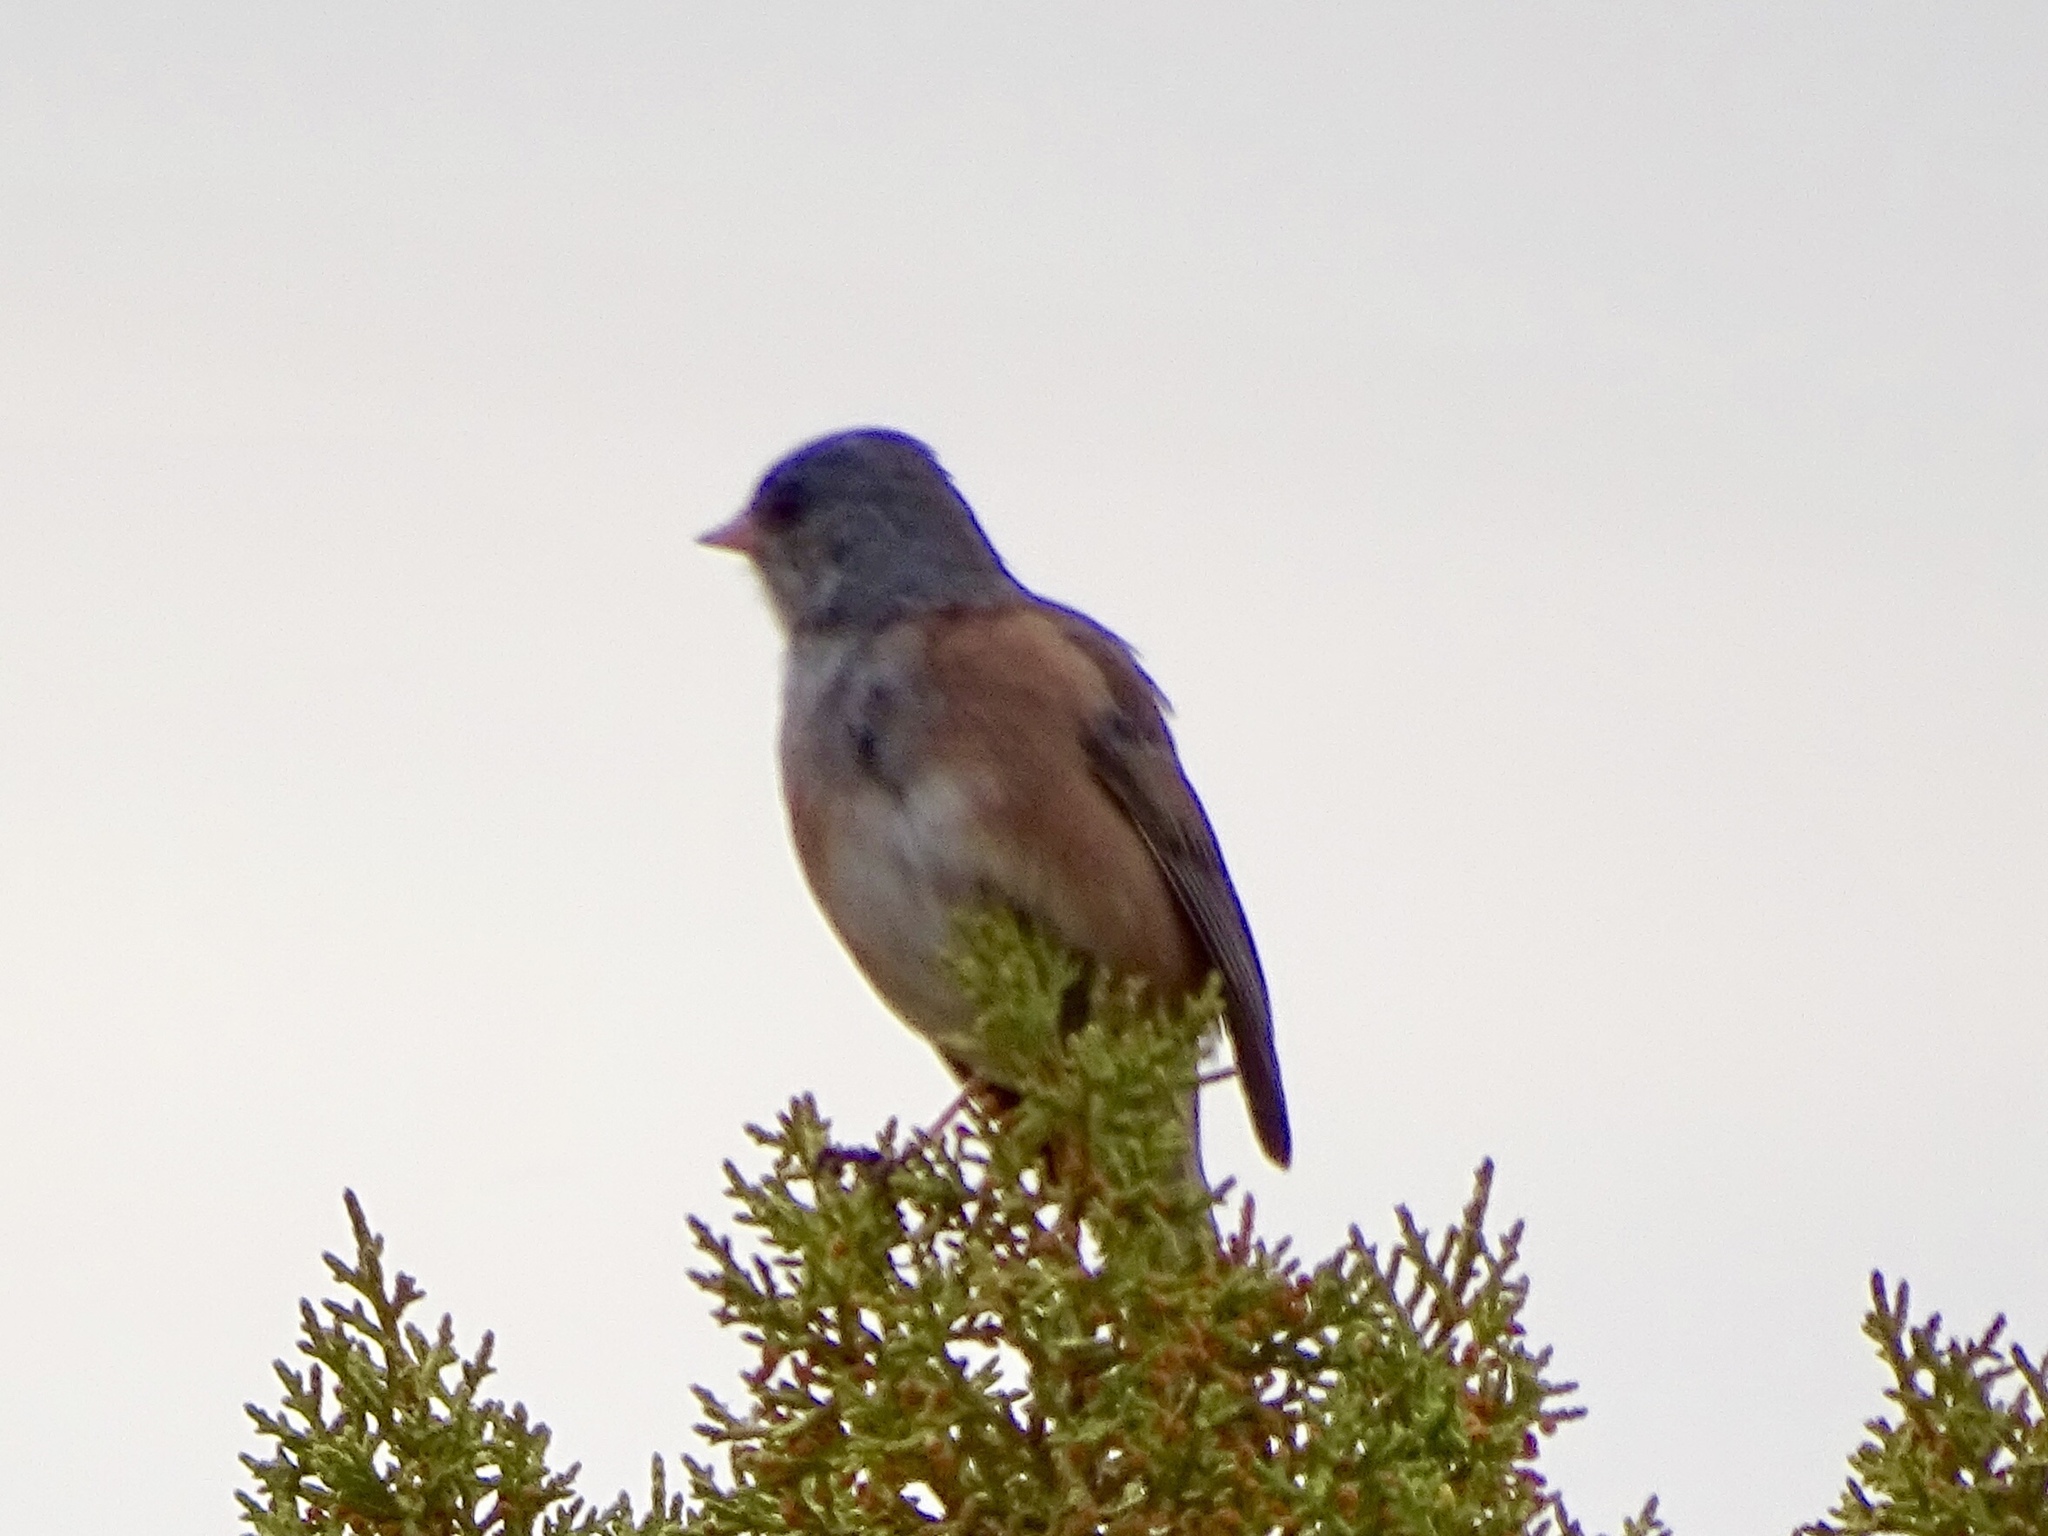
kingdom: Animalia
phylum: Chordata
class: Aves
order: Passeriformes
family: Passerellidae
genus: Junco
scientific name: Junco hyemalis
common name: Dark-eyed junco
